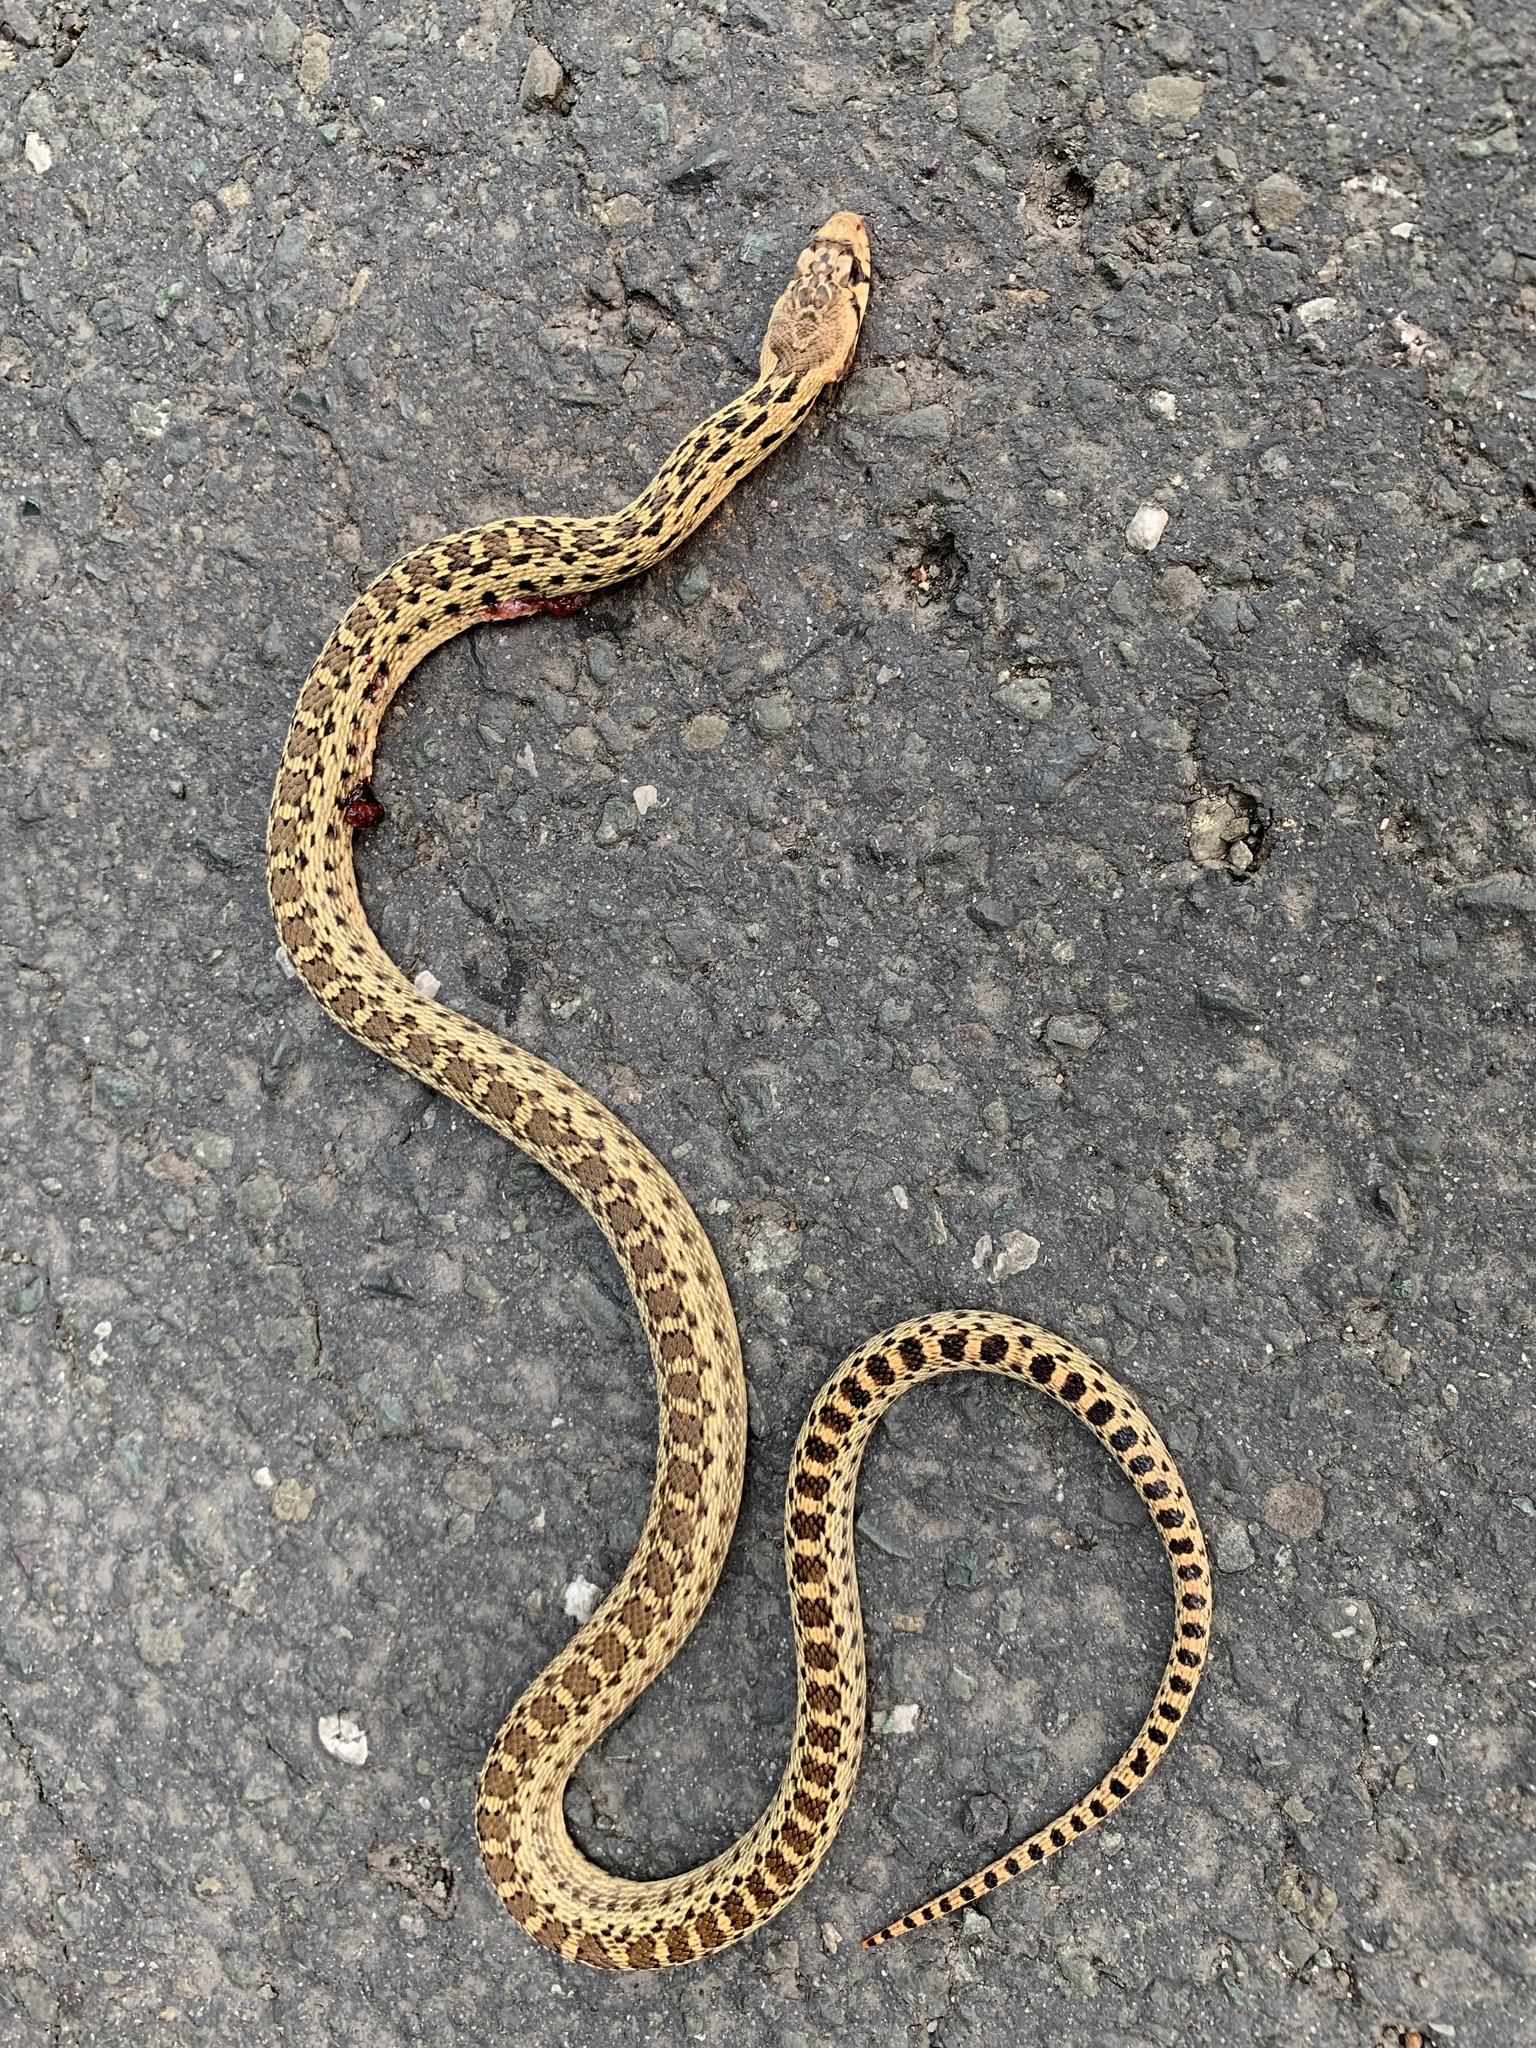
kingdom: Animalia
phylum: Chordata
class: Squamata
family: Colubridae
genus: Pituophis
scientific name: Pituophis catenifer
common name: Gopher snake
